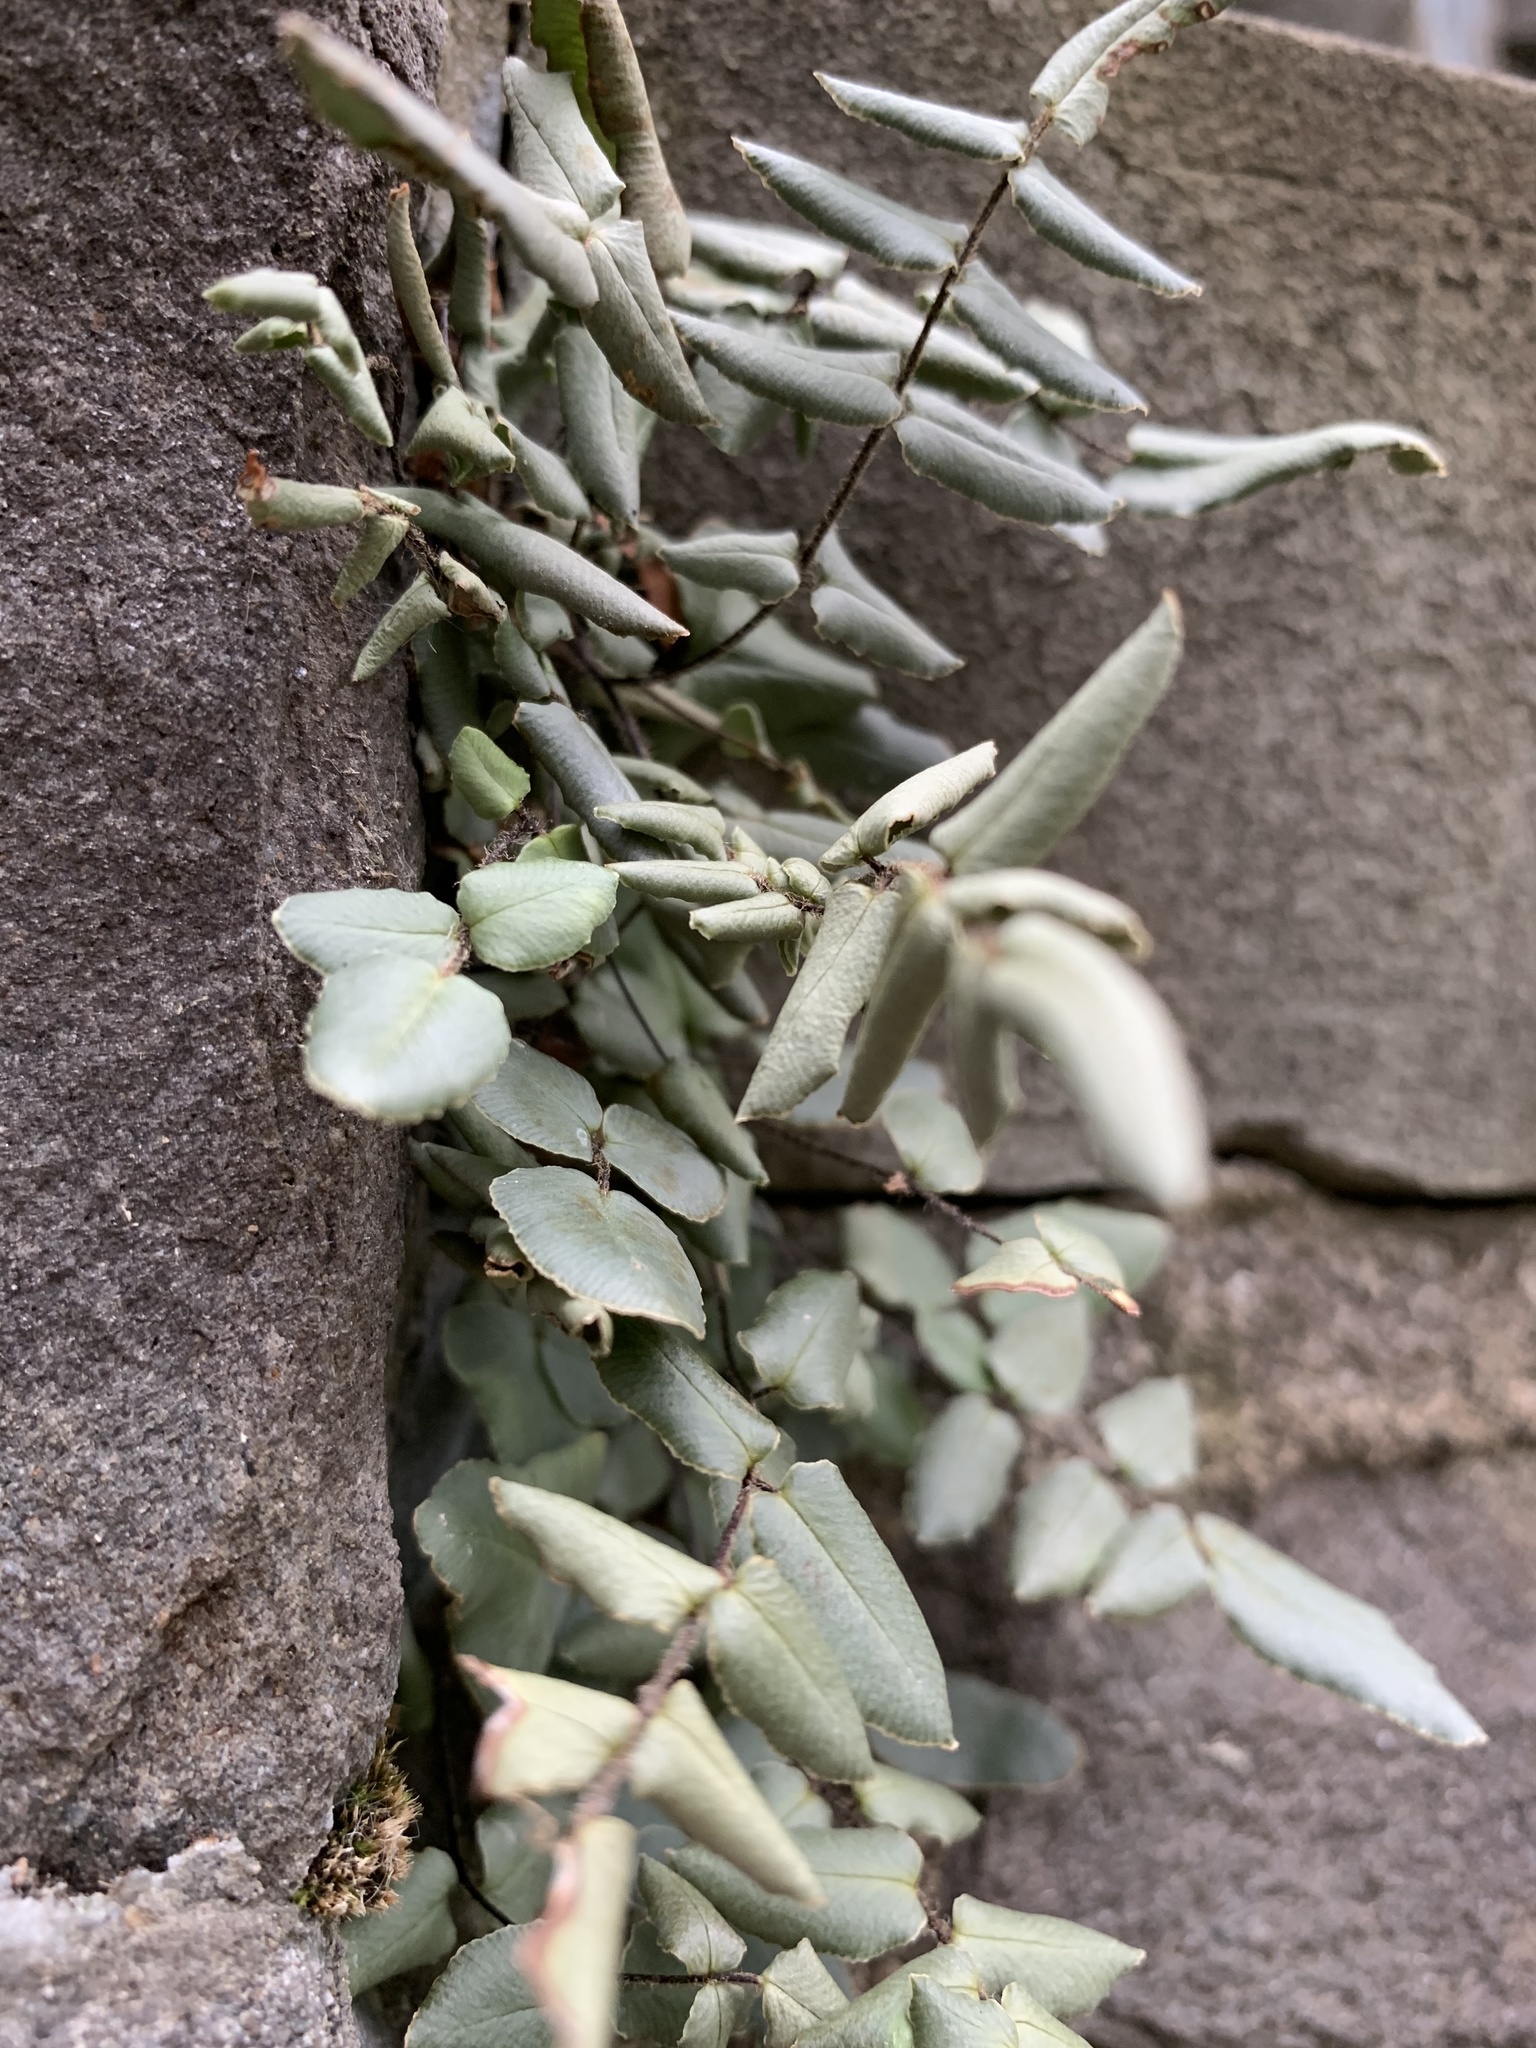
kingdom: Plantae
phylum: Tracheophyta
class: Polypodiopsida
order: Polypodiales
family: Pteridaceae
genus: Pellaea
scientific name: Pellaea atropurpurea
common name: Hairy cliffbrake
